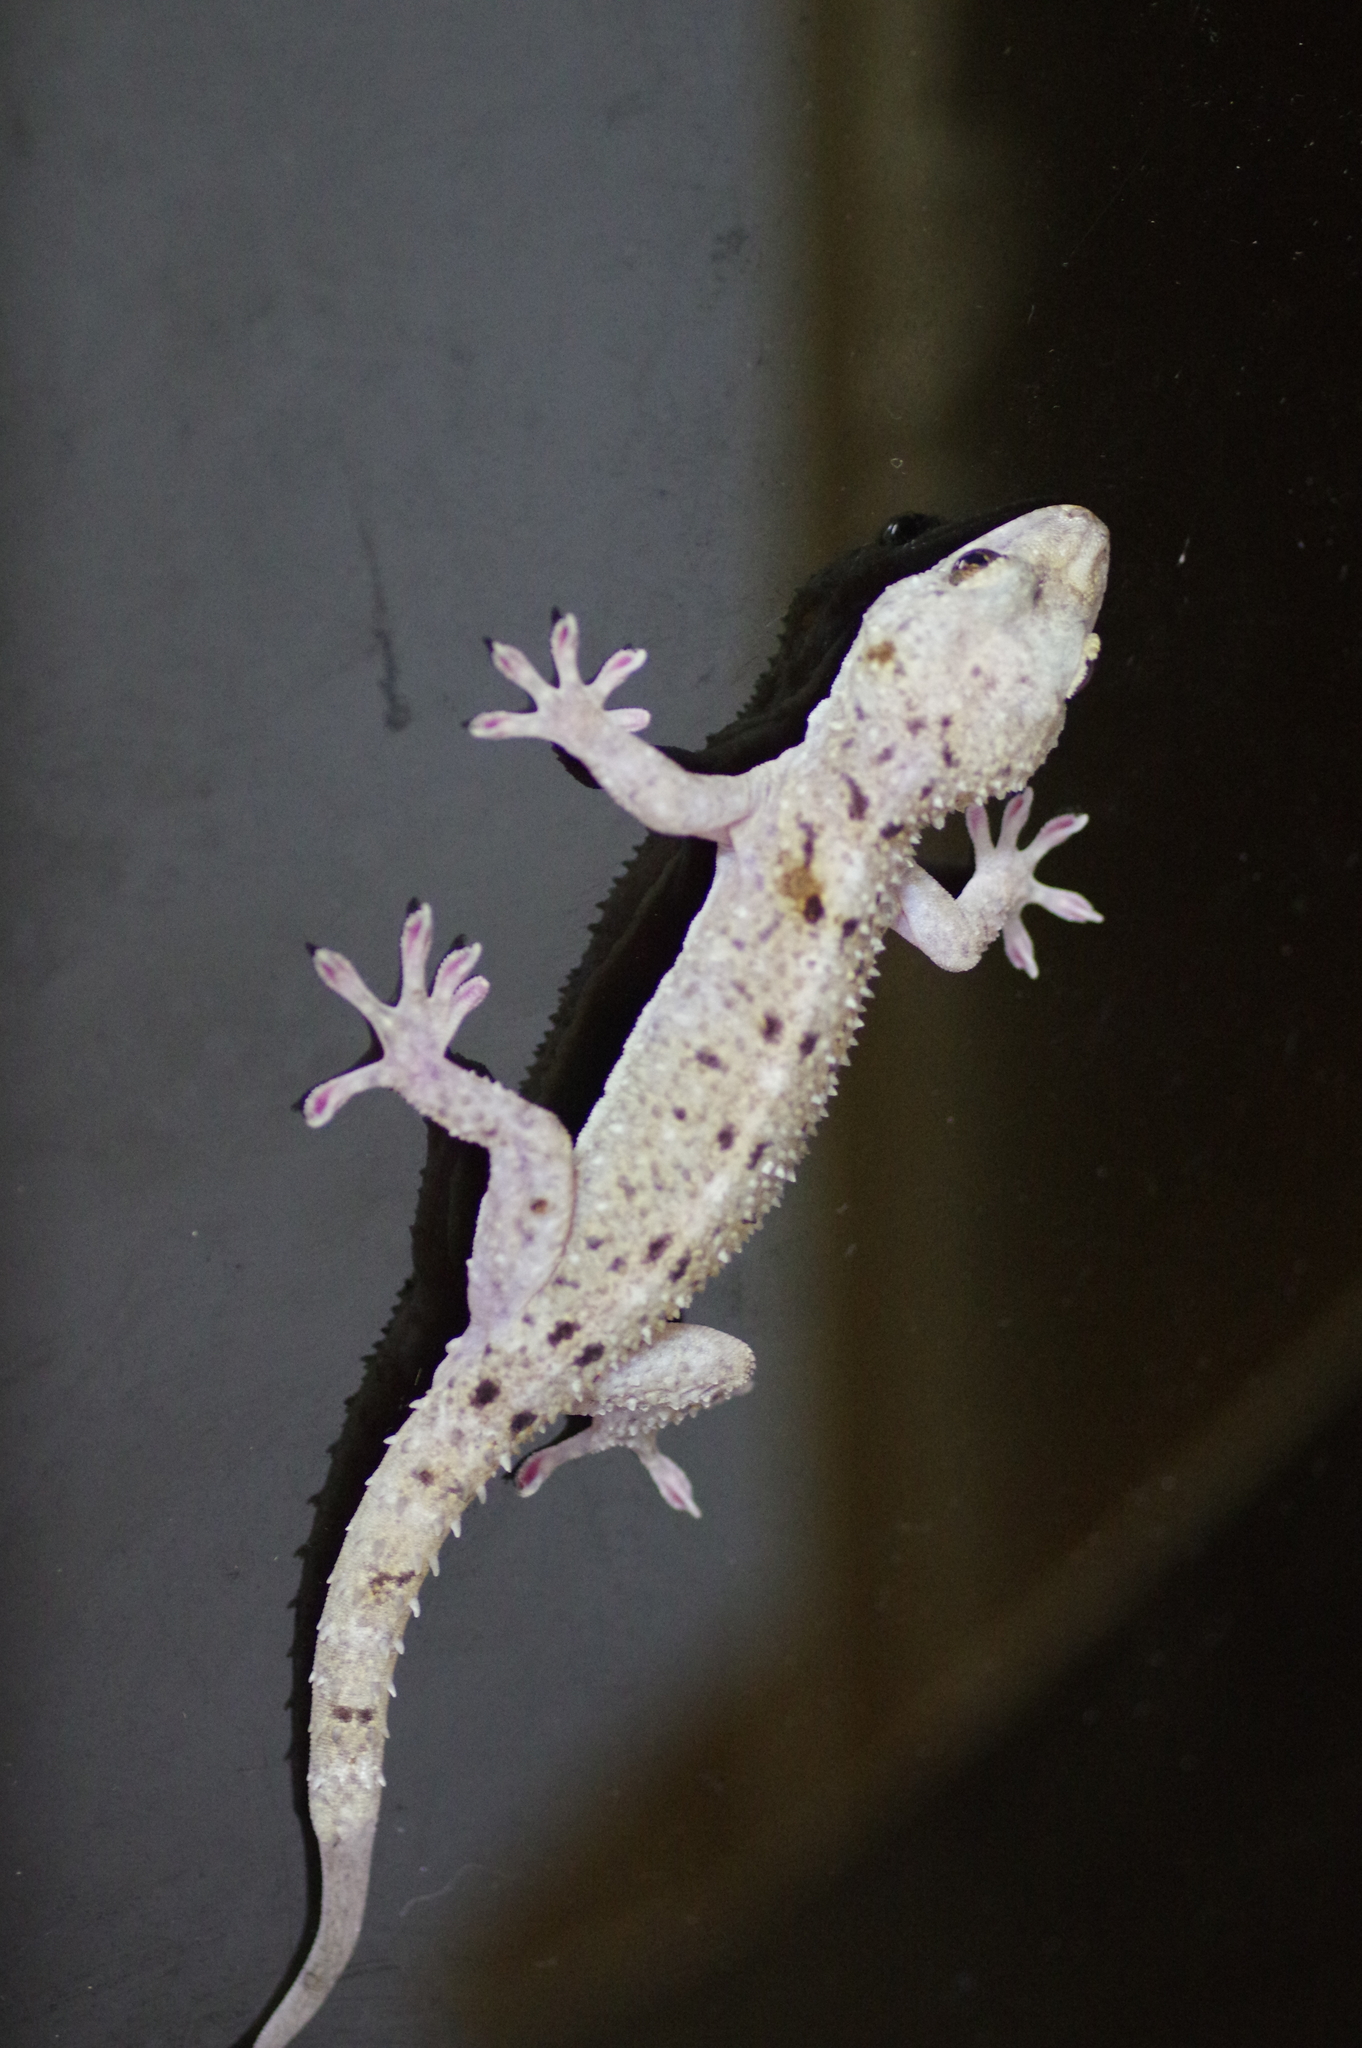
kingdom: Animalia
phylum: Chordata
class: Squamata
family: Gekkonidae
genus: Gekko
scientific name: Gekko monarchus
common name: Spotted house gecko
